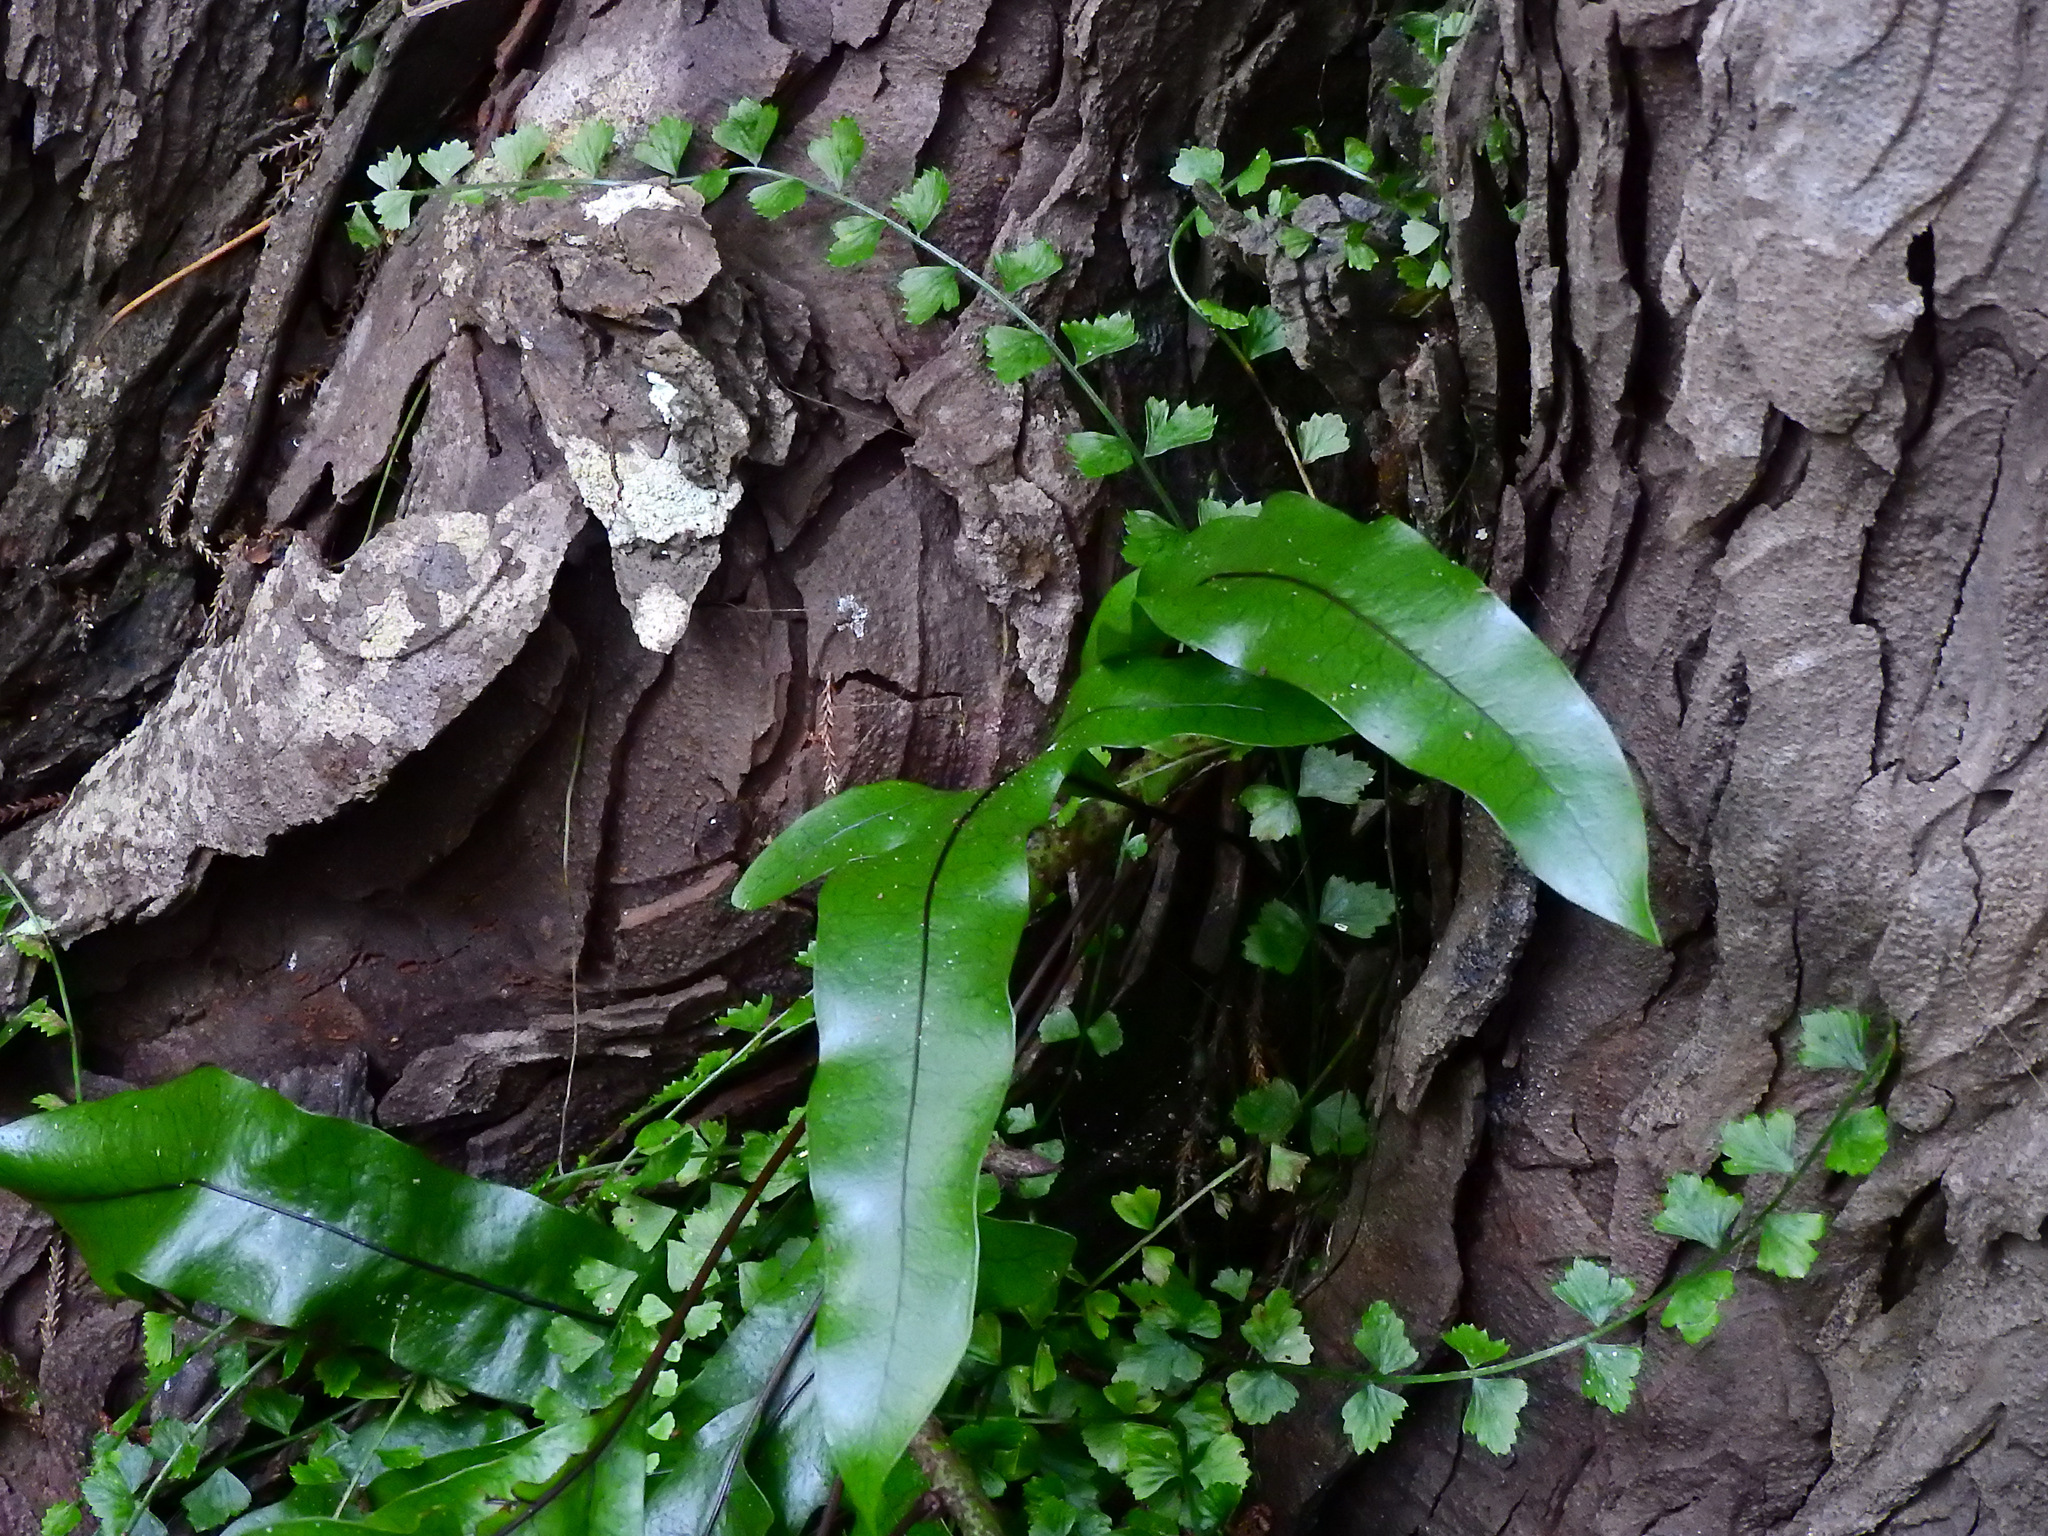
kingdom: Plantae
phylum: Tracheophyta
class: Polypodiopsida
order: Polypodiales
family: Aspleniaceae
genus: Asplenium
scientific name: Asplenium flabellifolium
